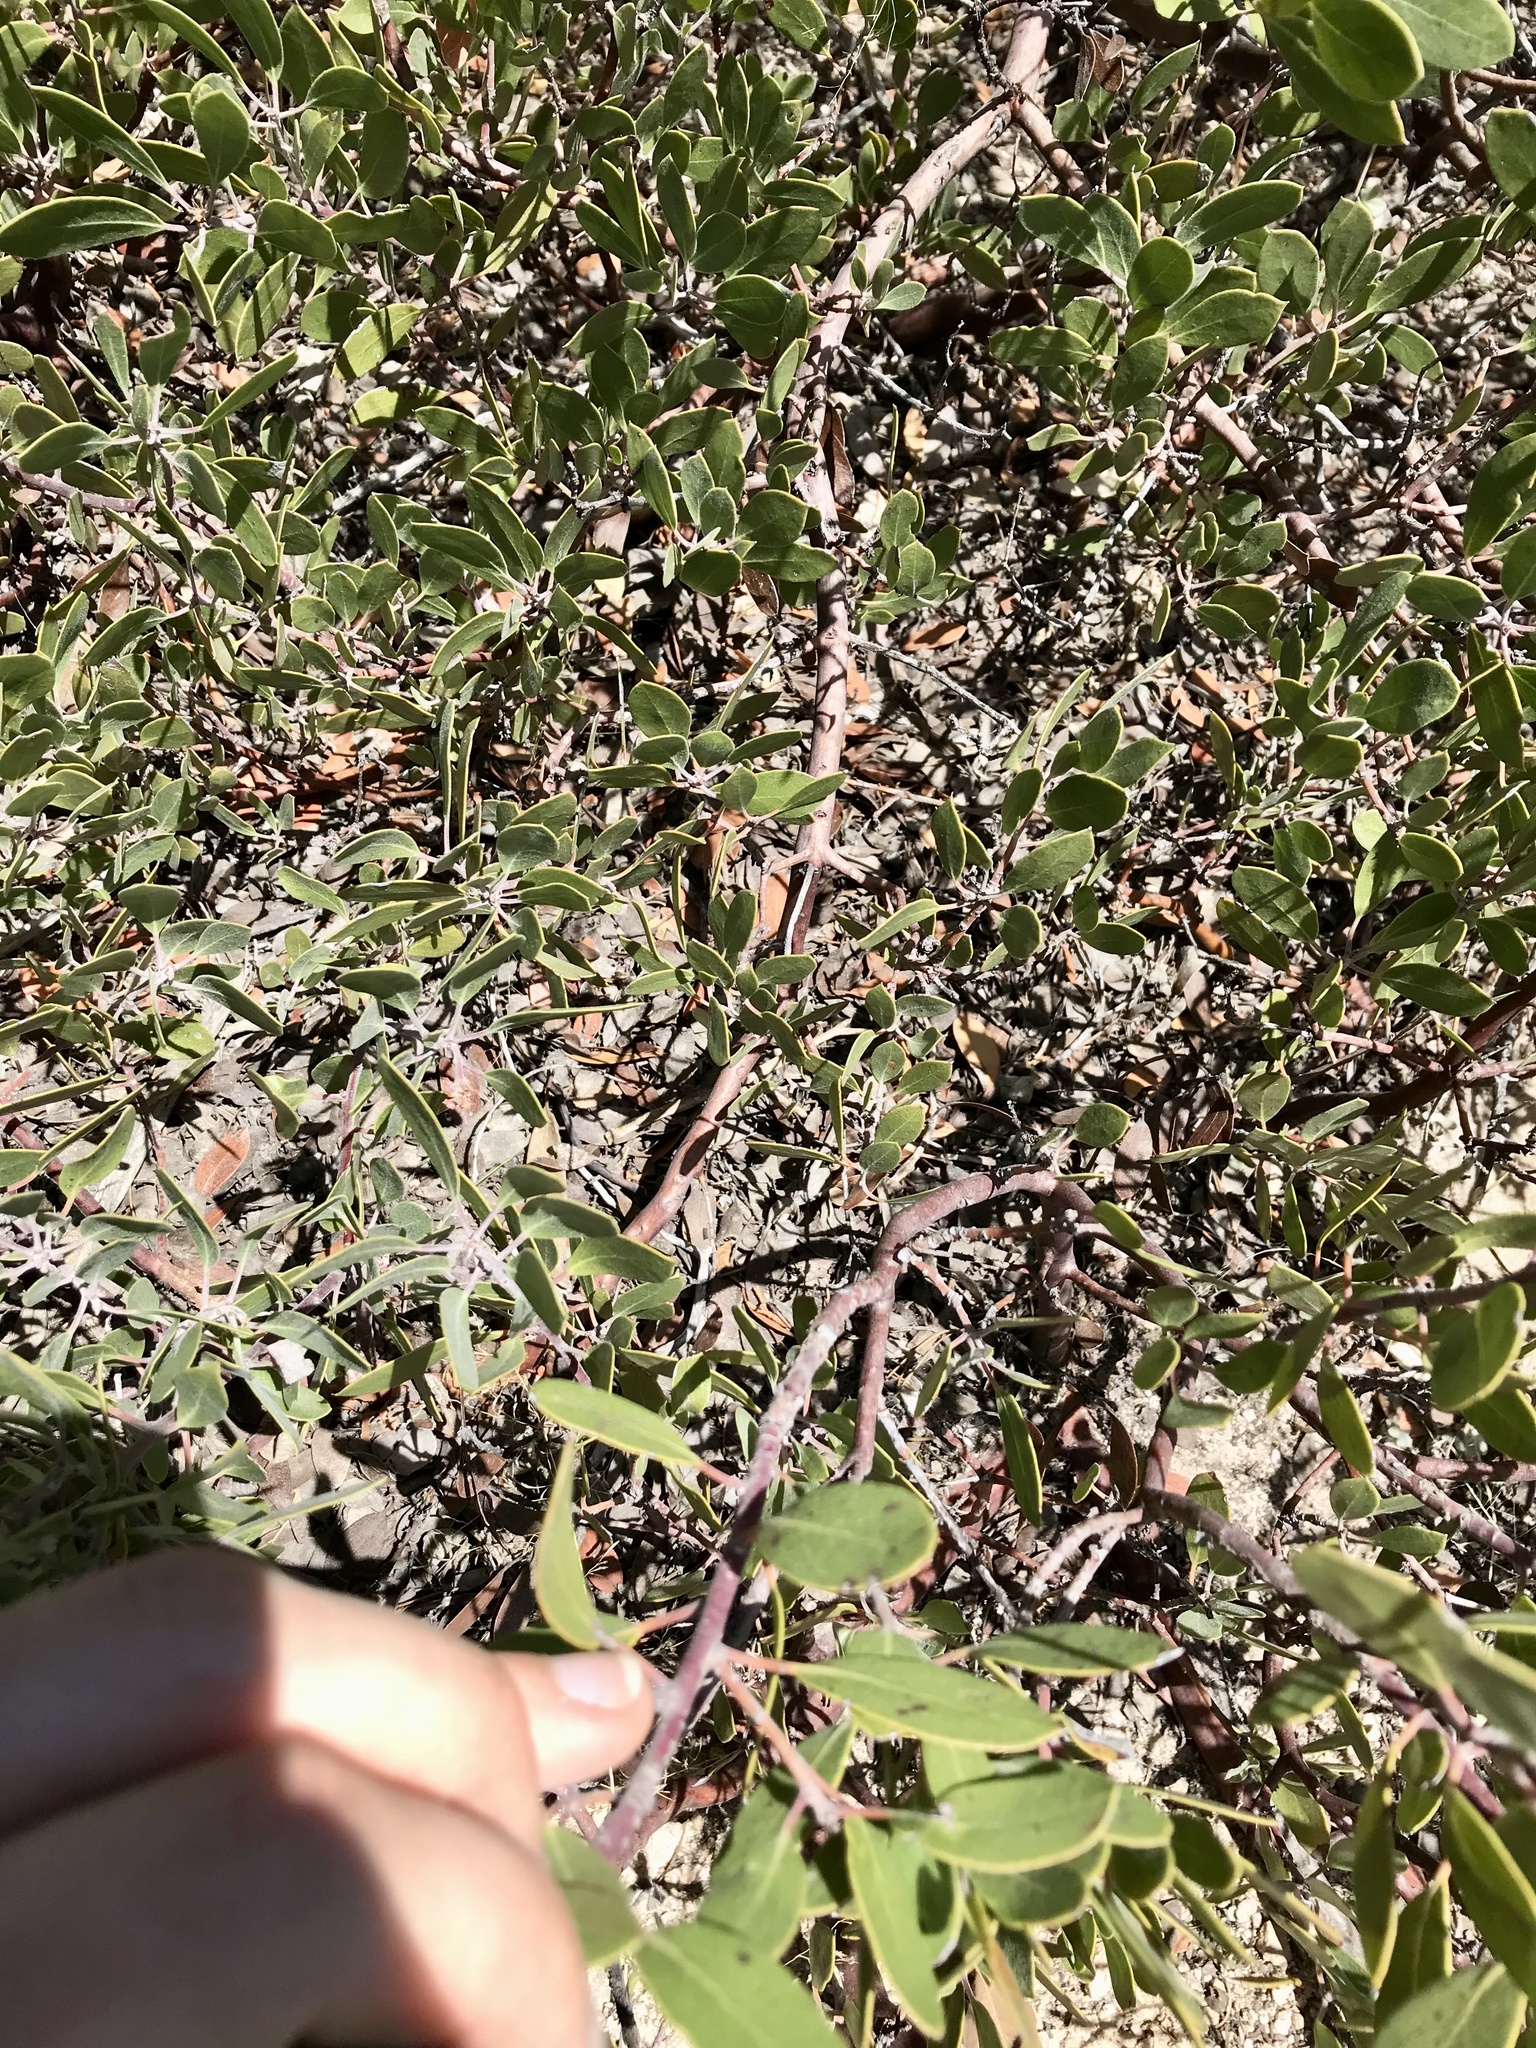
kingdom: Plantae
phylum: Tracheophyta
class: Magnoliopsida
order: Ericales
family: Ericaceae
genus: Arctostaphylos
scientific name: Arctostaphylos pungens
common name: Mexican manzanita
